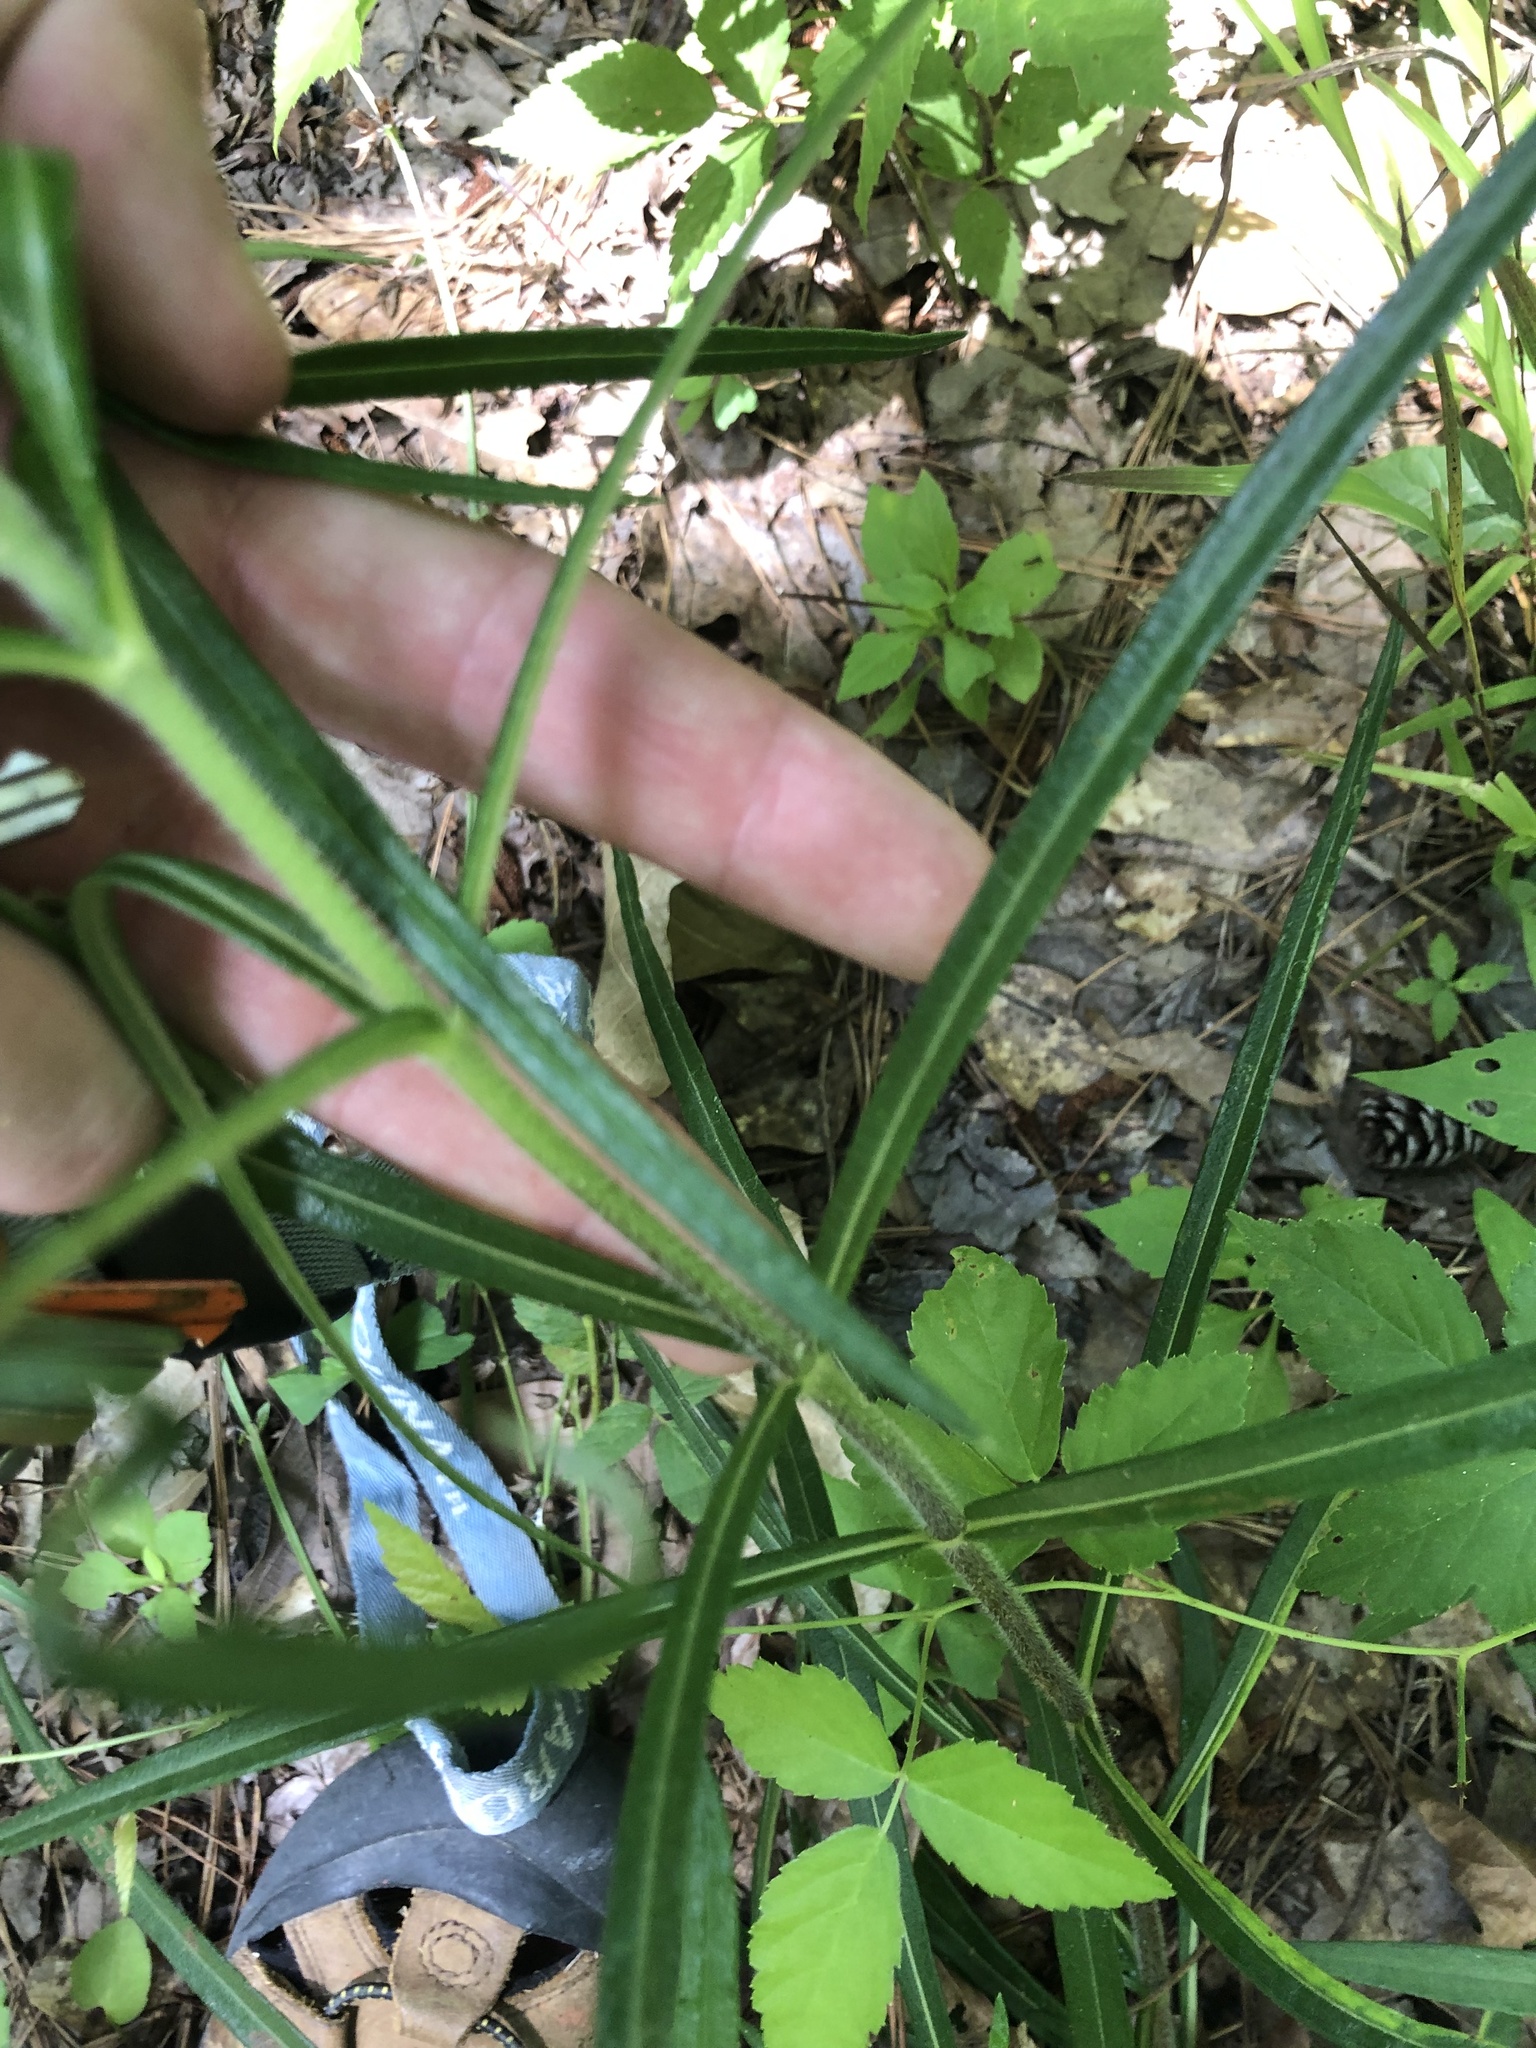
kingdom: Plantae
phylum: Tracheophyta
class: Magnoliopsida
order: Asterales
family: Asteraceae
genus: Helianthus
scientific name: Helianthus angustifolius
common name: Swamp sunflower
